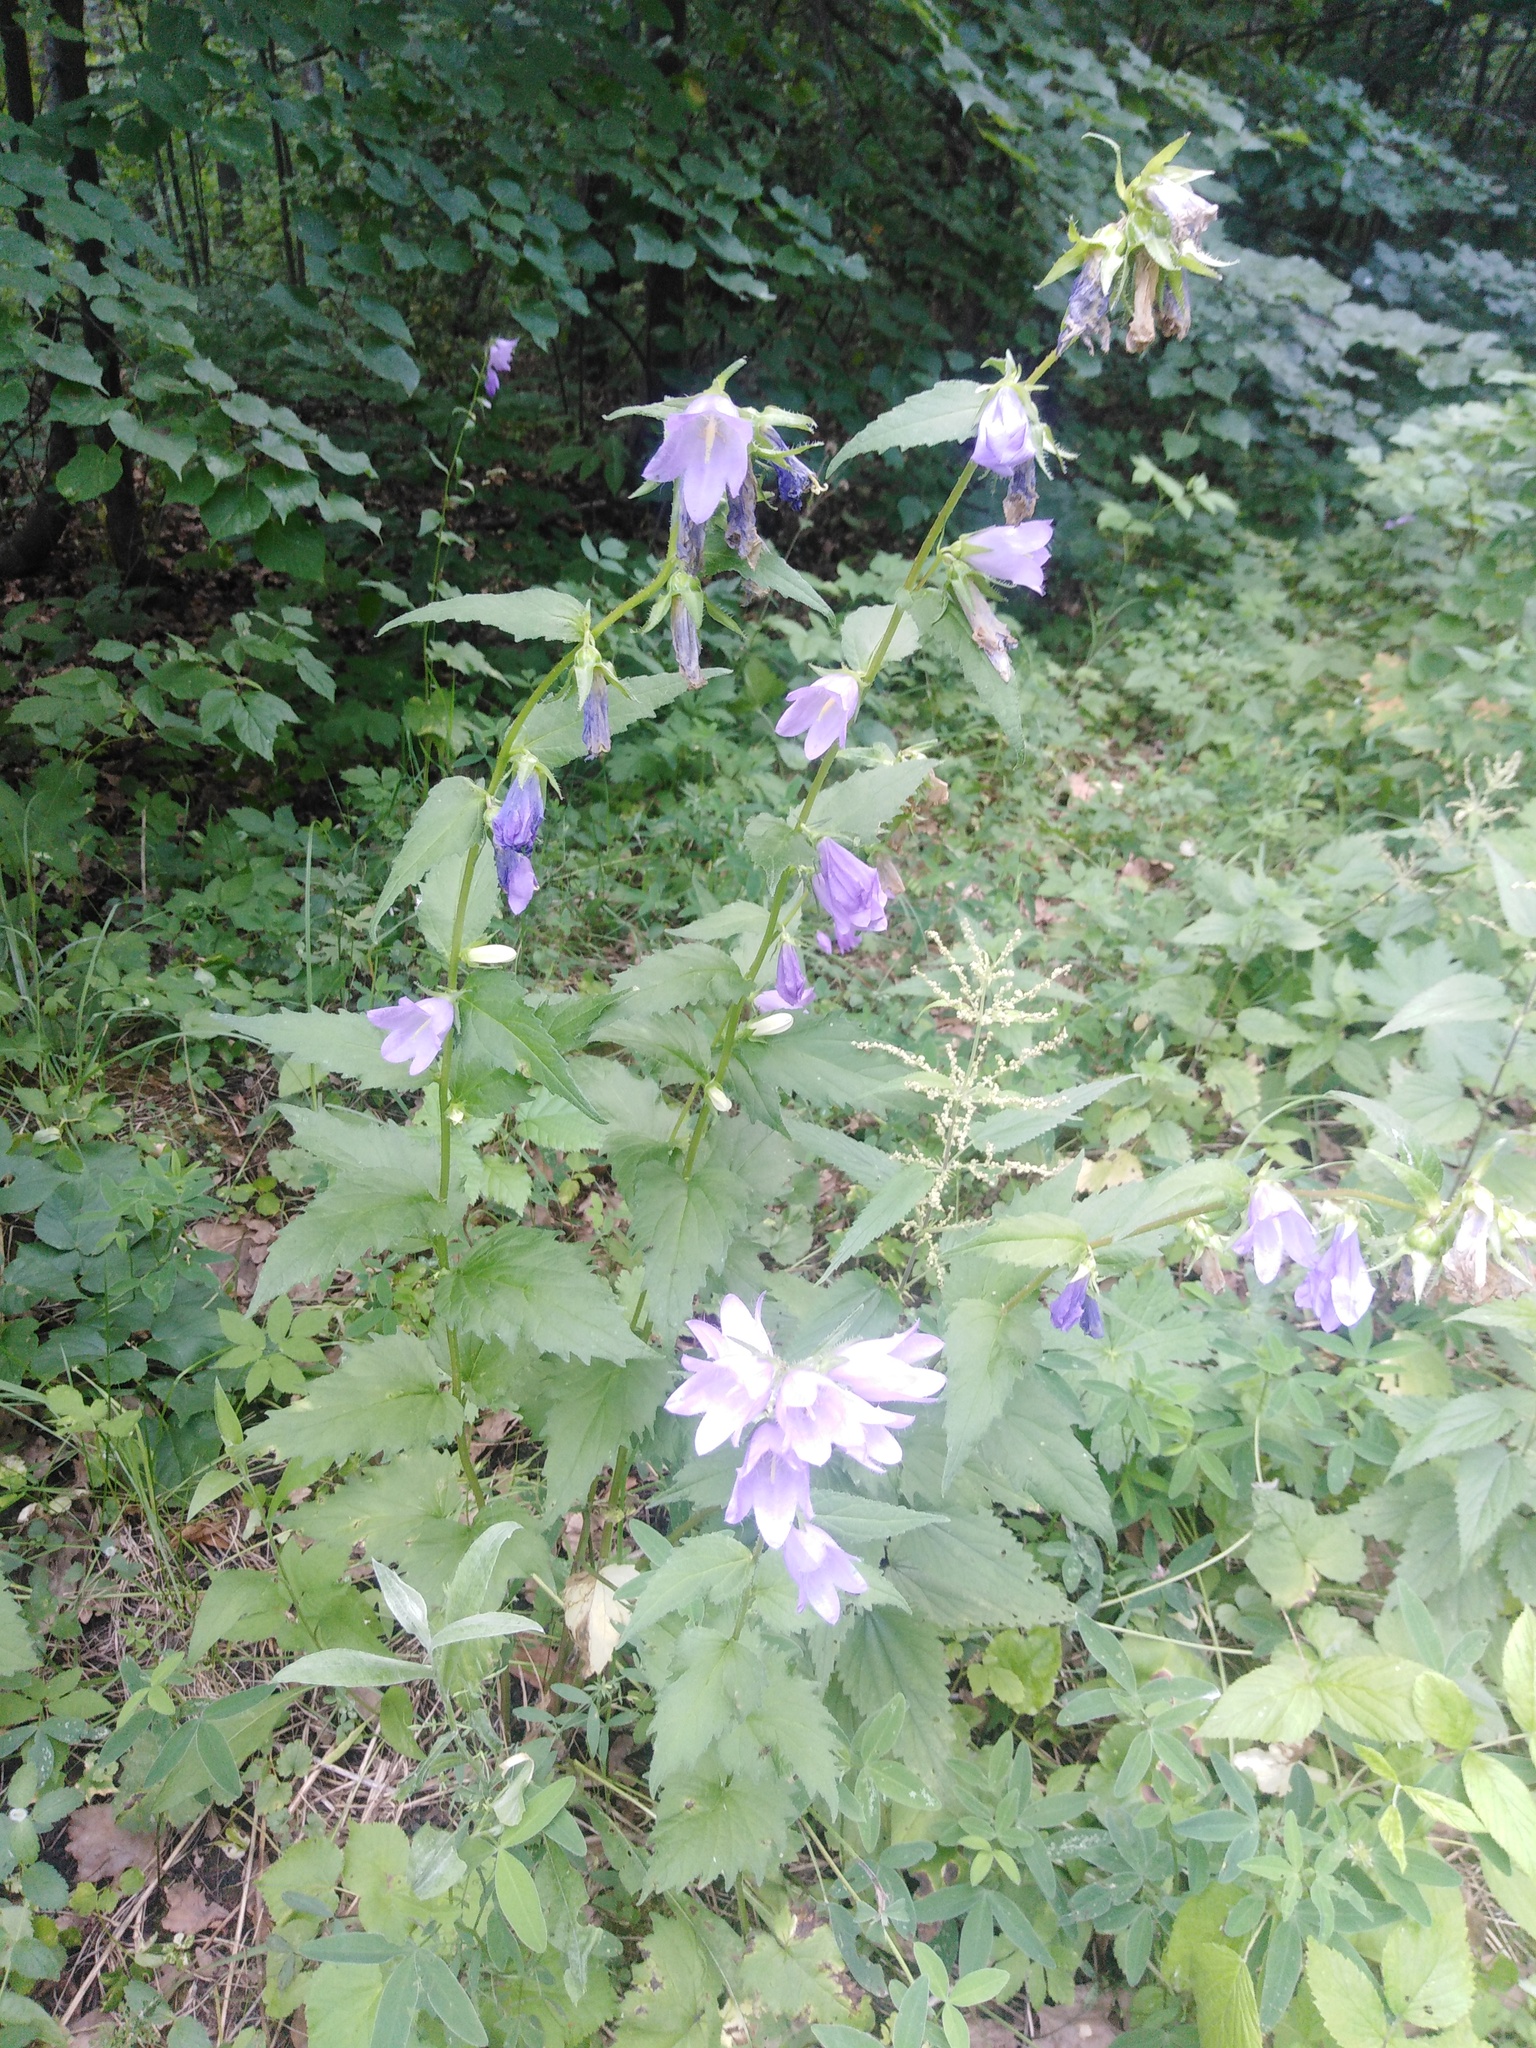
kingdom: Plantae
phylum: Tracheophyta
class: Magnoliopsida
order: Asterales
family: Campanulaceae
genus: Campanula
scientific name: Campanula trachelium
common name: Nettle-leaved bellflower
